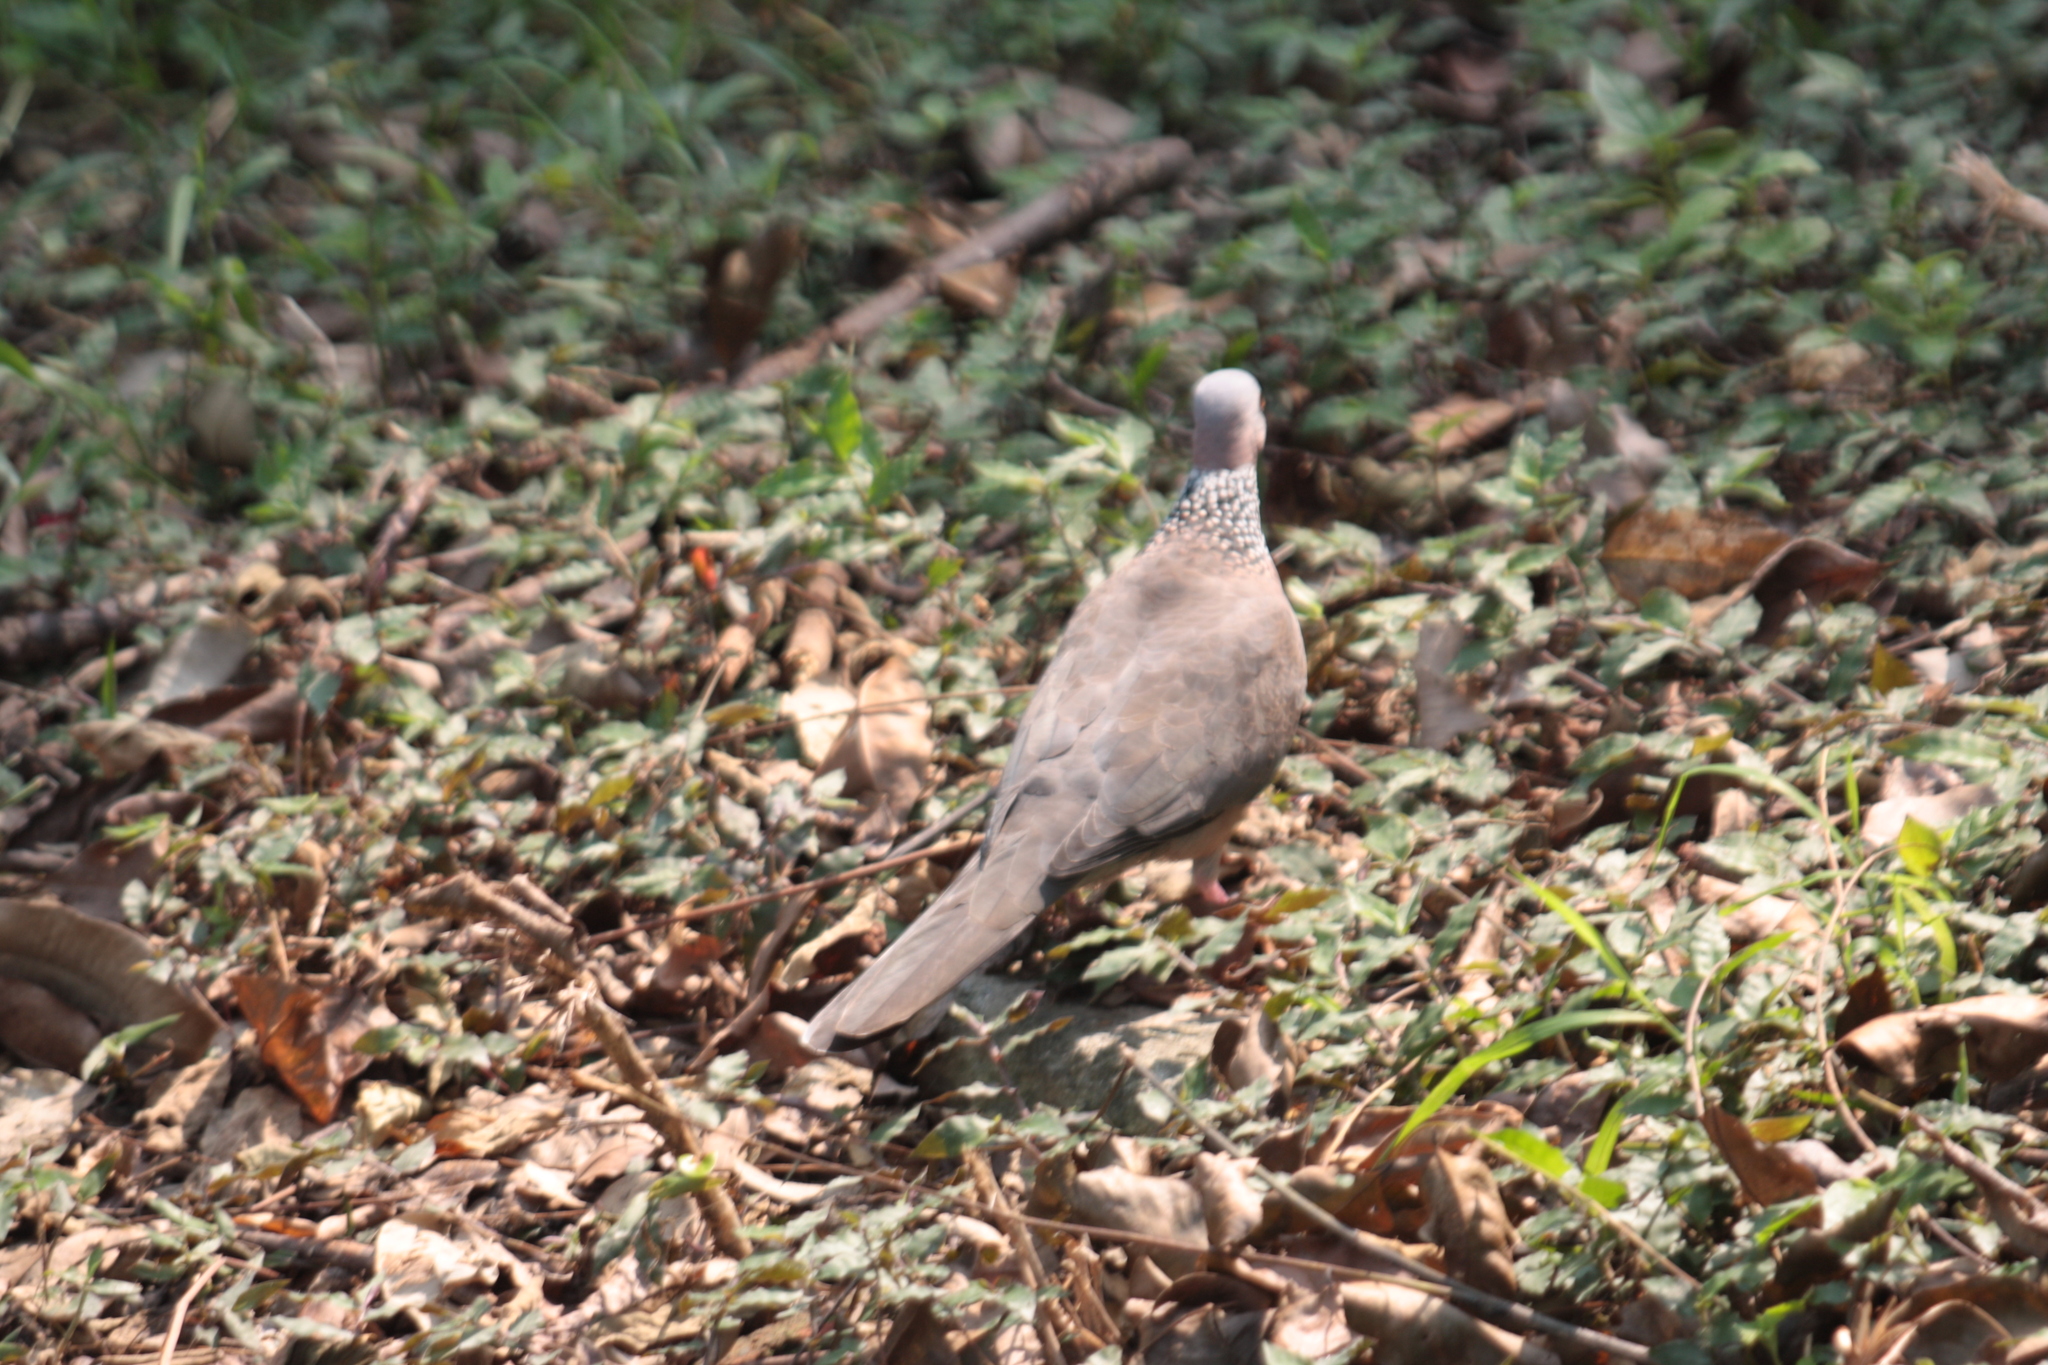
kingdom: Animalia
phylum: Chordata
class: Aves
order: Columbiformes
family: Columbidae
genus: Spilopelia
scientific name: Spilopelia chinensis
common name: Spotted dove
